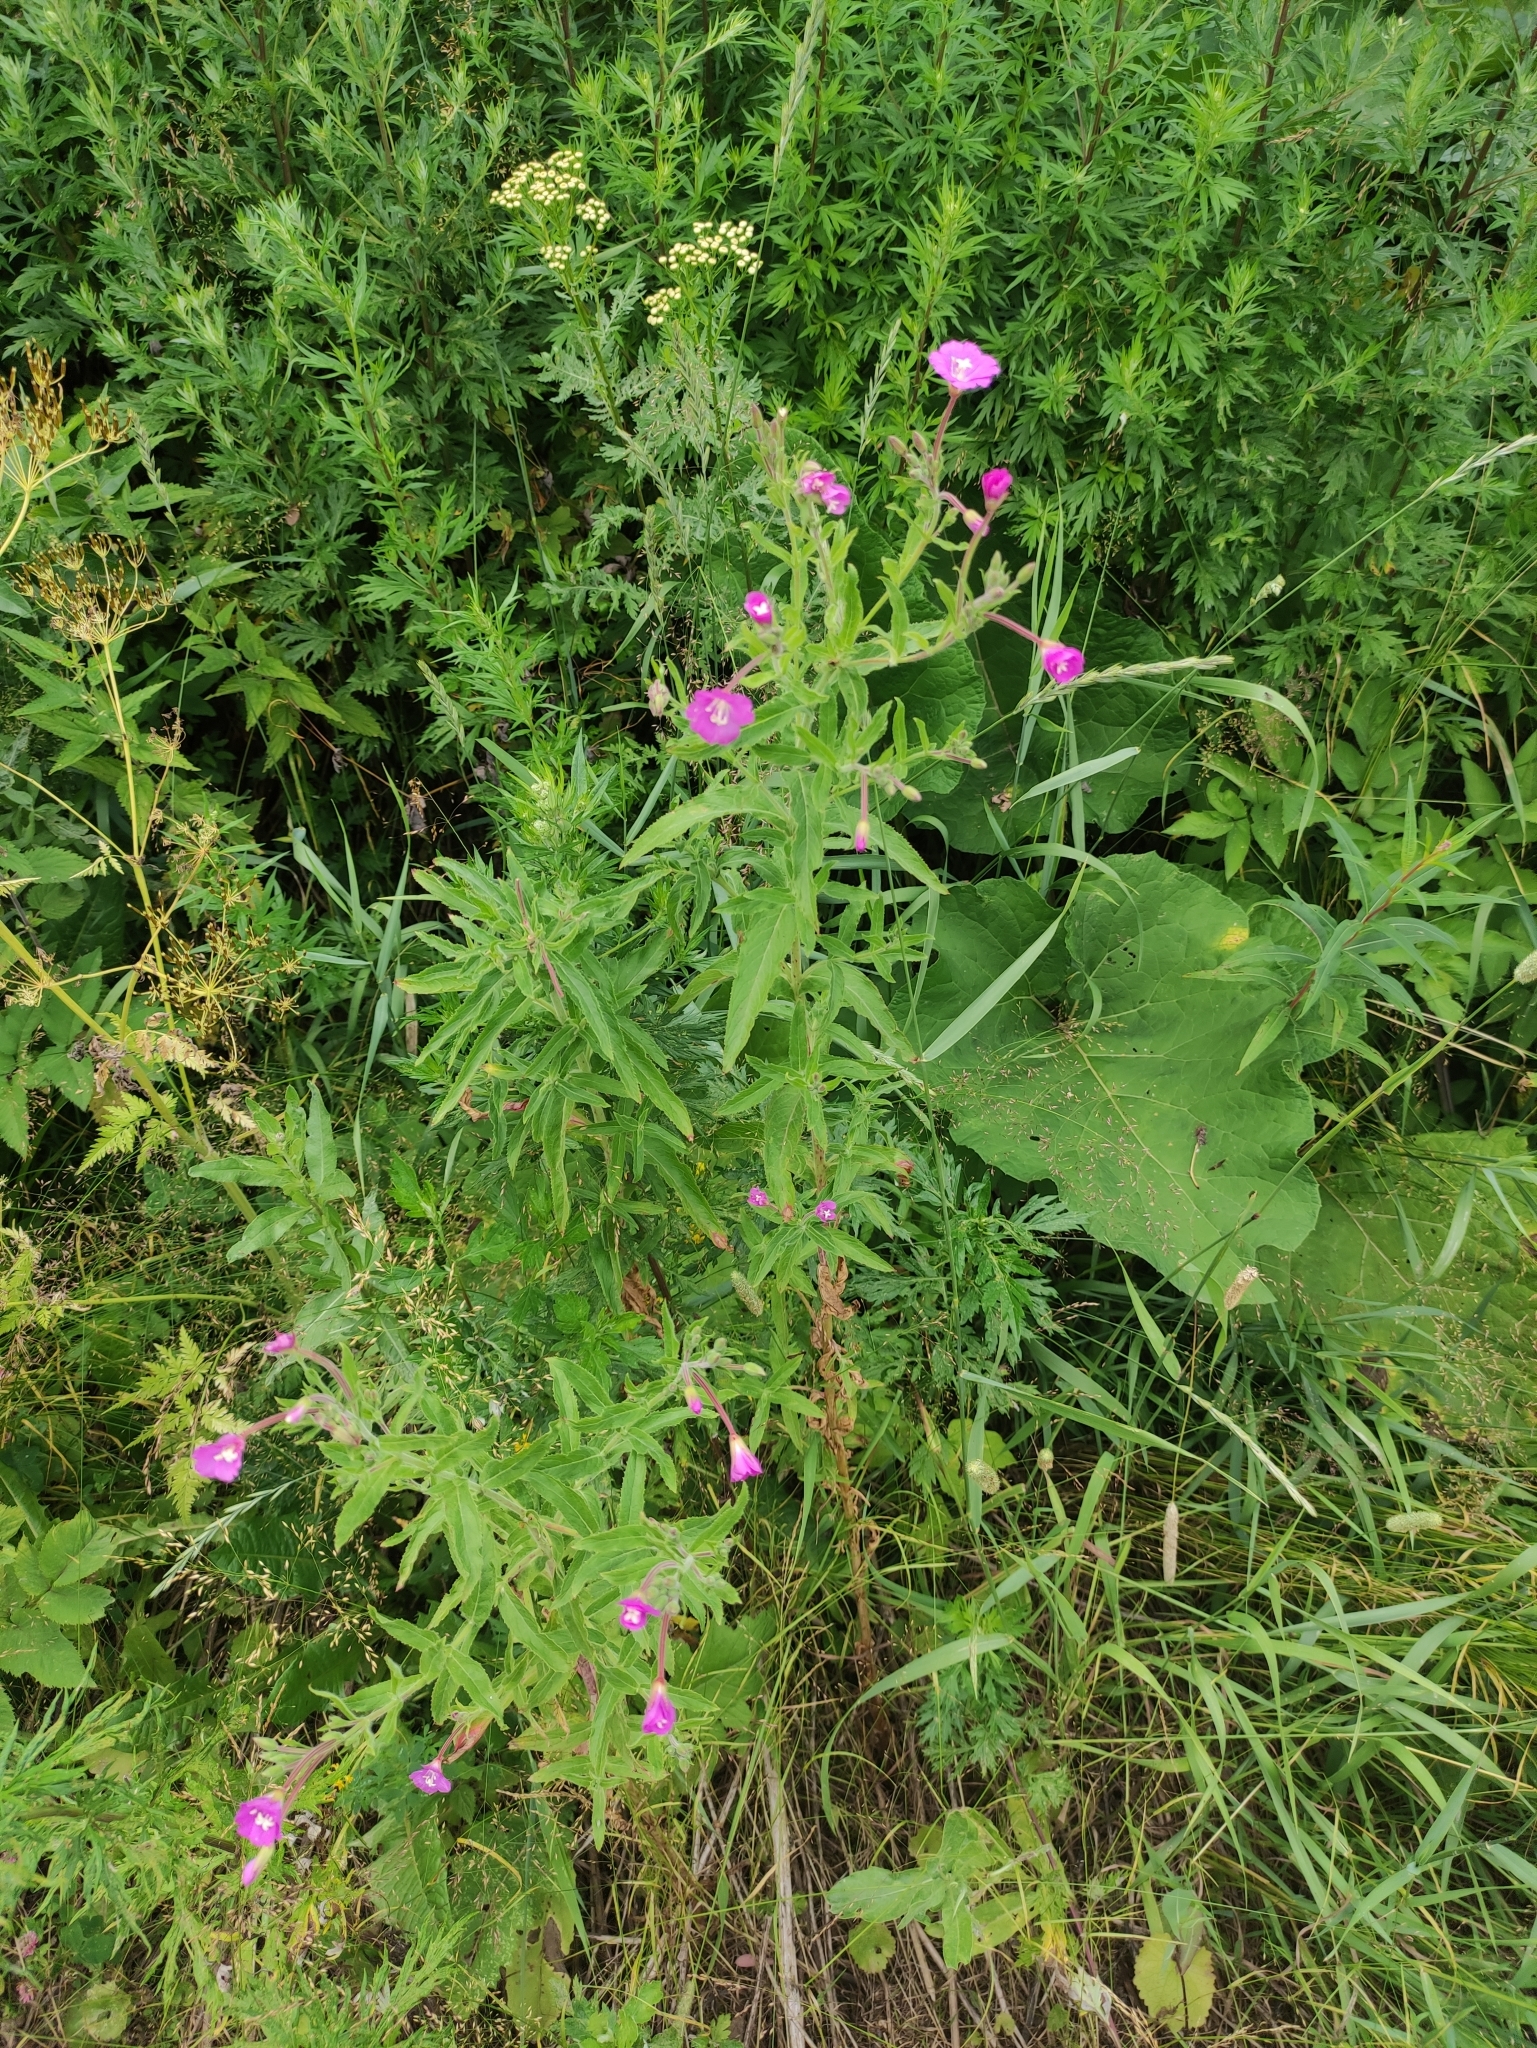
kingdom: Plantae
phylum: Tracheophyta
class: Magnoliopsida
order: Myrtales
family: Onagraceae
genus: Epilobium
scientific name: Epilobium hirsutum
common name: Great willowherb
